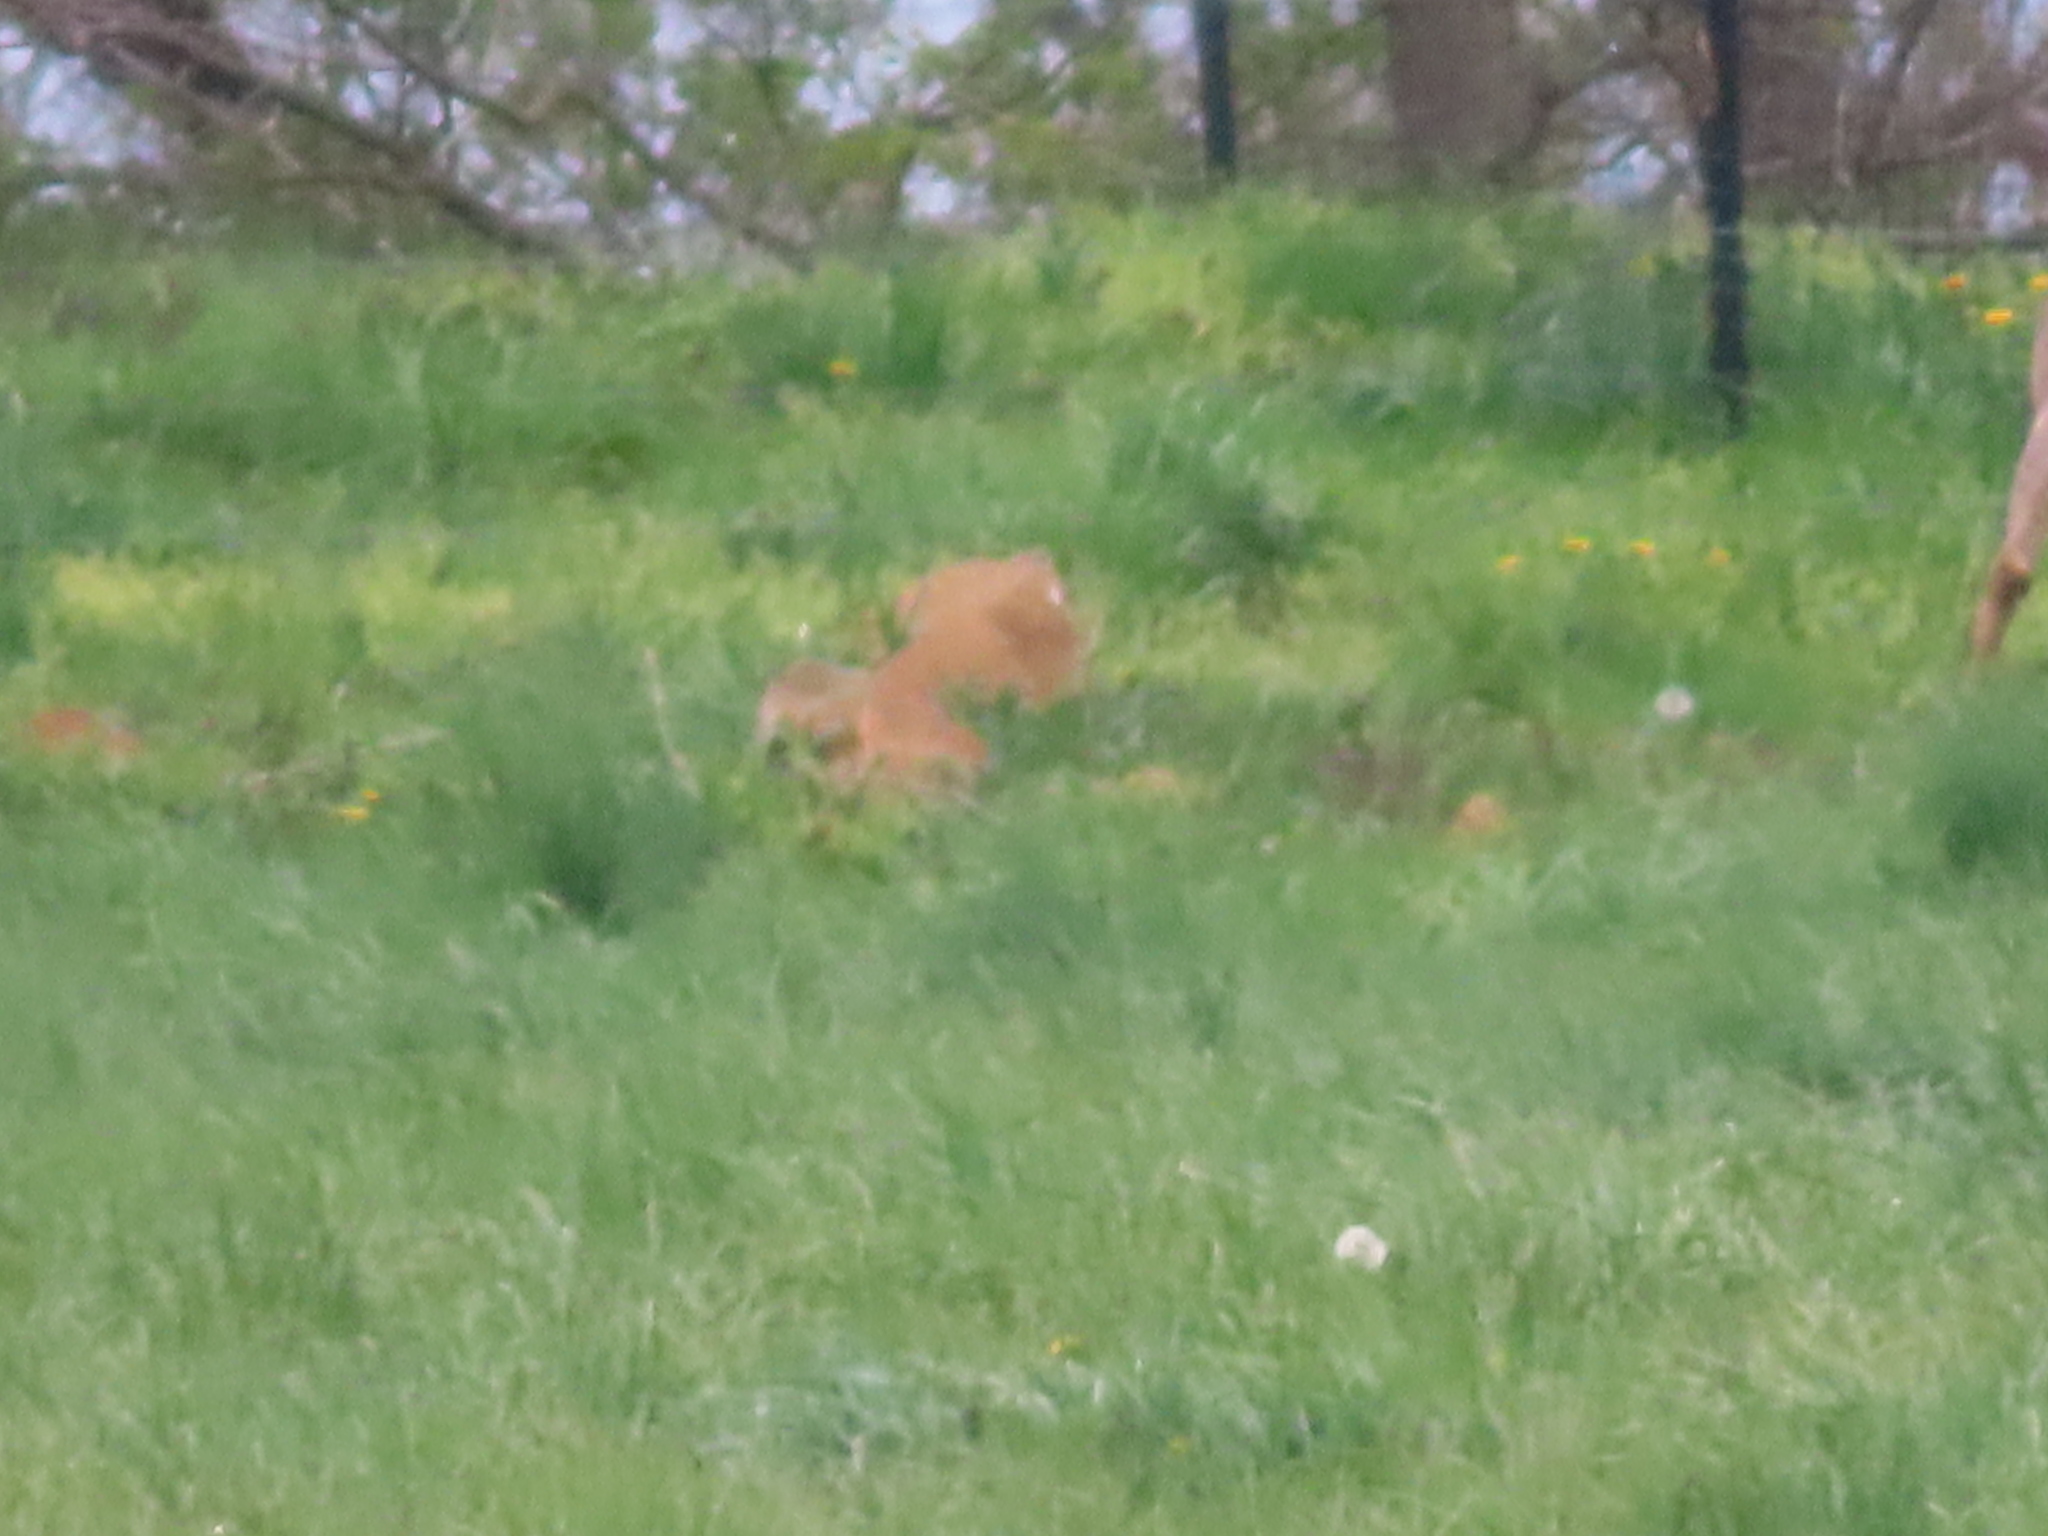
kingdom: Animalia
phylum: Chordata
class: Mammalia
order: Artiodactyla
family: Cervidae
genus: Odocoileus
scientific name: Odocoileus virginianus
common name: White-tailed deer
